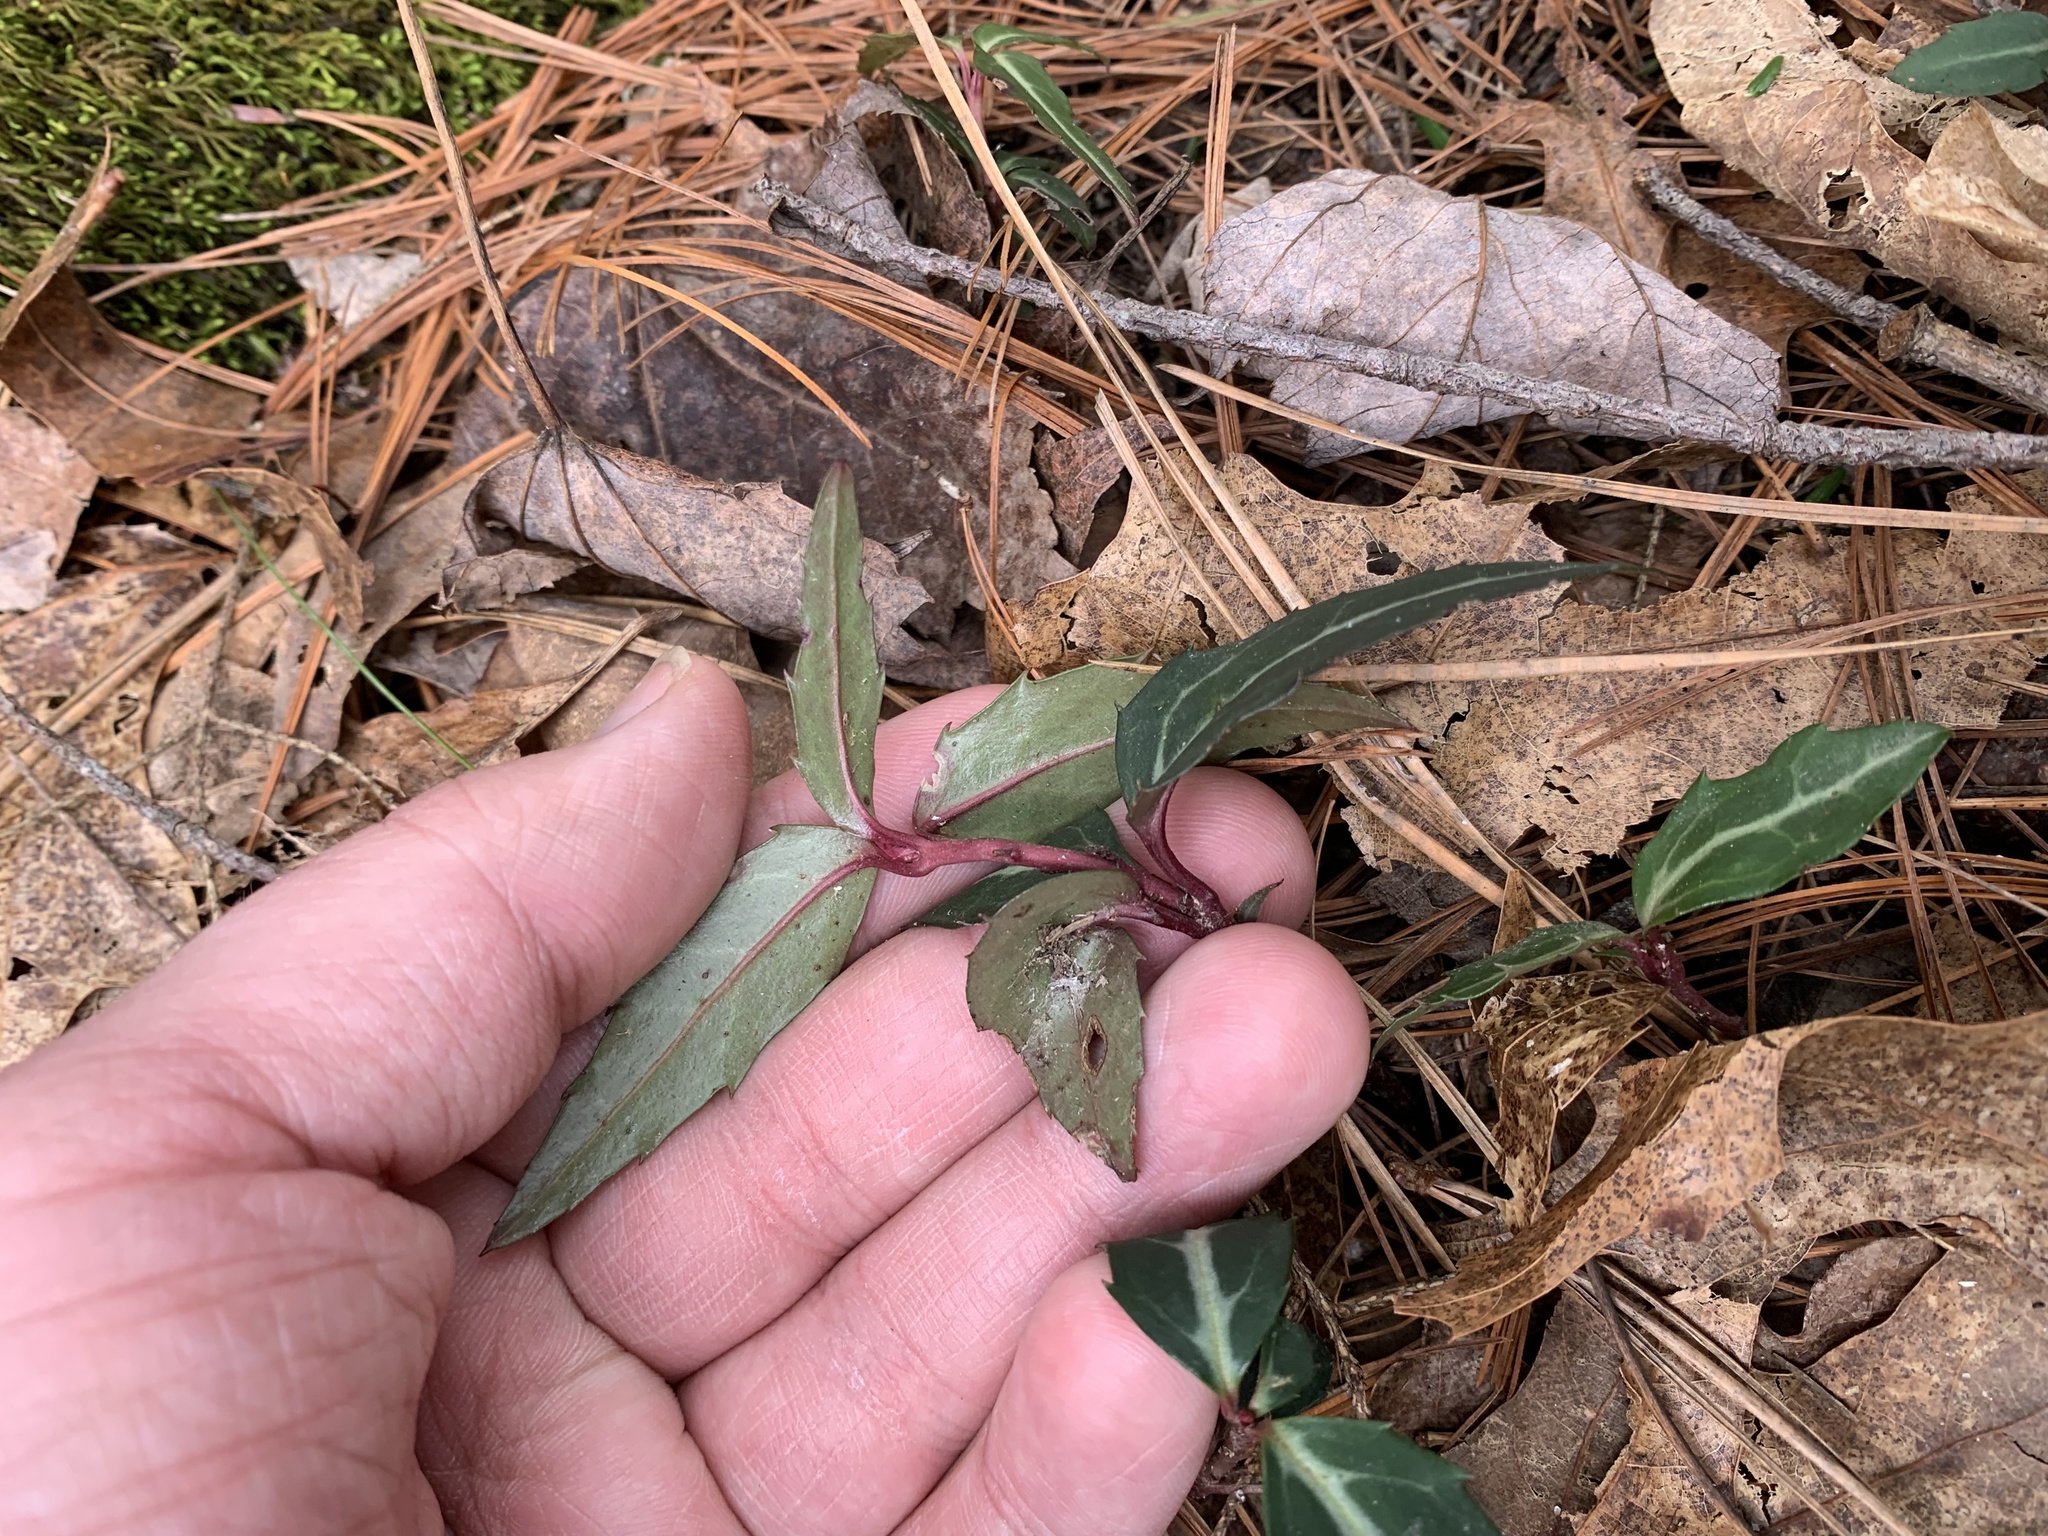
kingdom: Plantae
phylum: Tracheophyta
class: Magnoliopsida
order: Ericales
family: Ericaceae
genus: Chimaphila
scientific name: Chimaphila maculata
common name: Spotted pipsissewa
